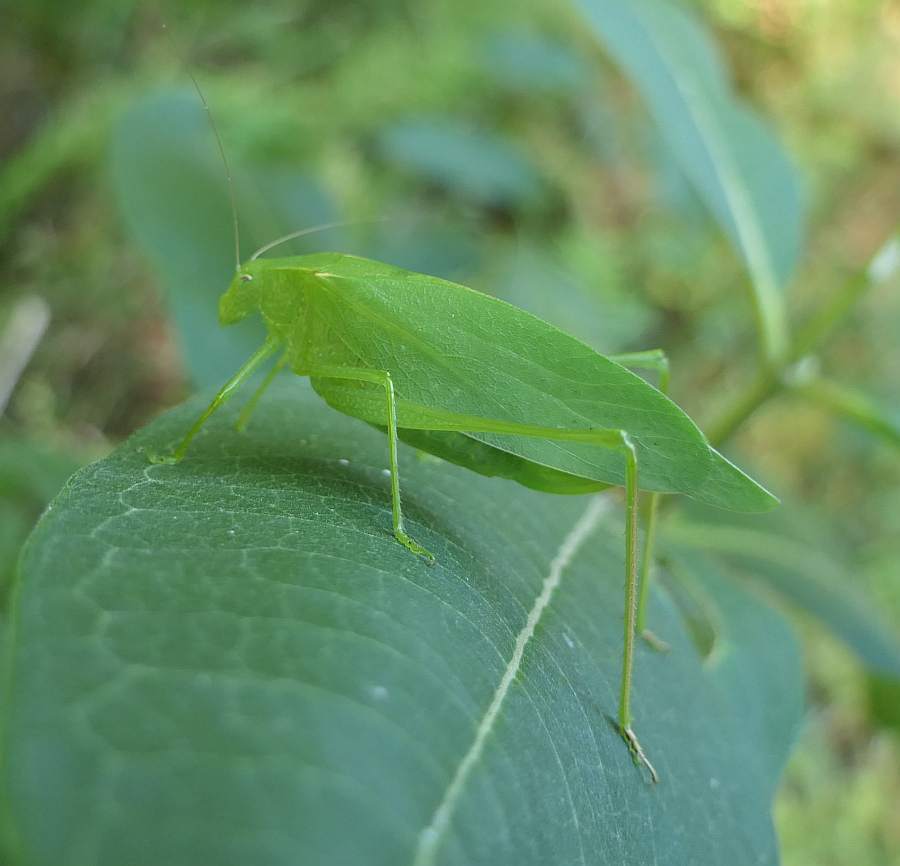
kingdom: Animalia
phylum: Arthropoda
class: Insecta
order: Orthoptera
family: Tettigoniidae
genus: Amblycorypha
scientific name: Amblycorypha oblongifolia
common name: Oblong-winged katydid
